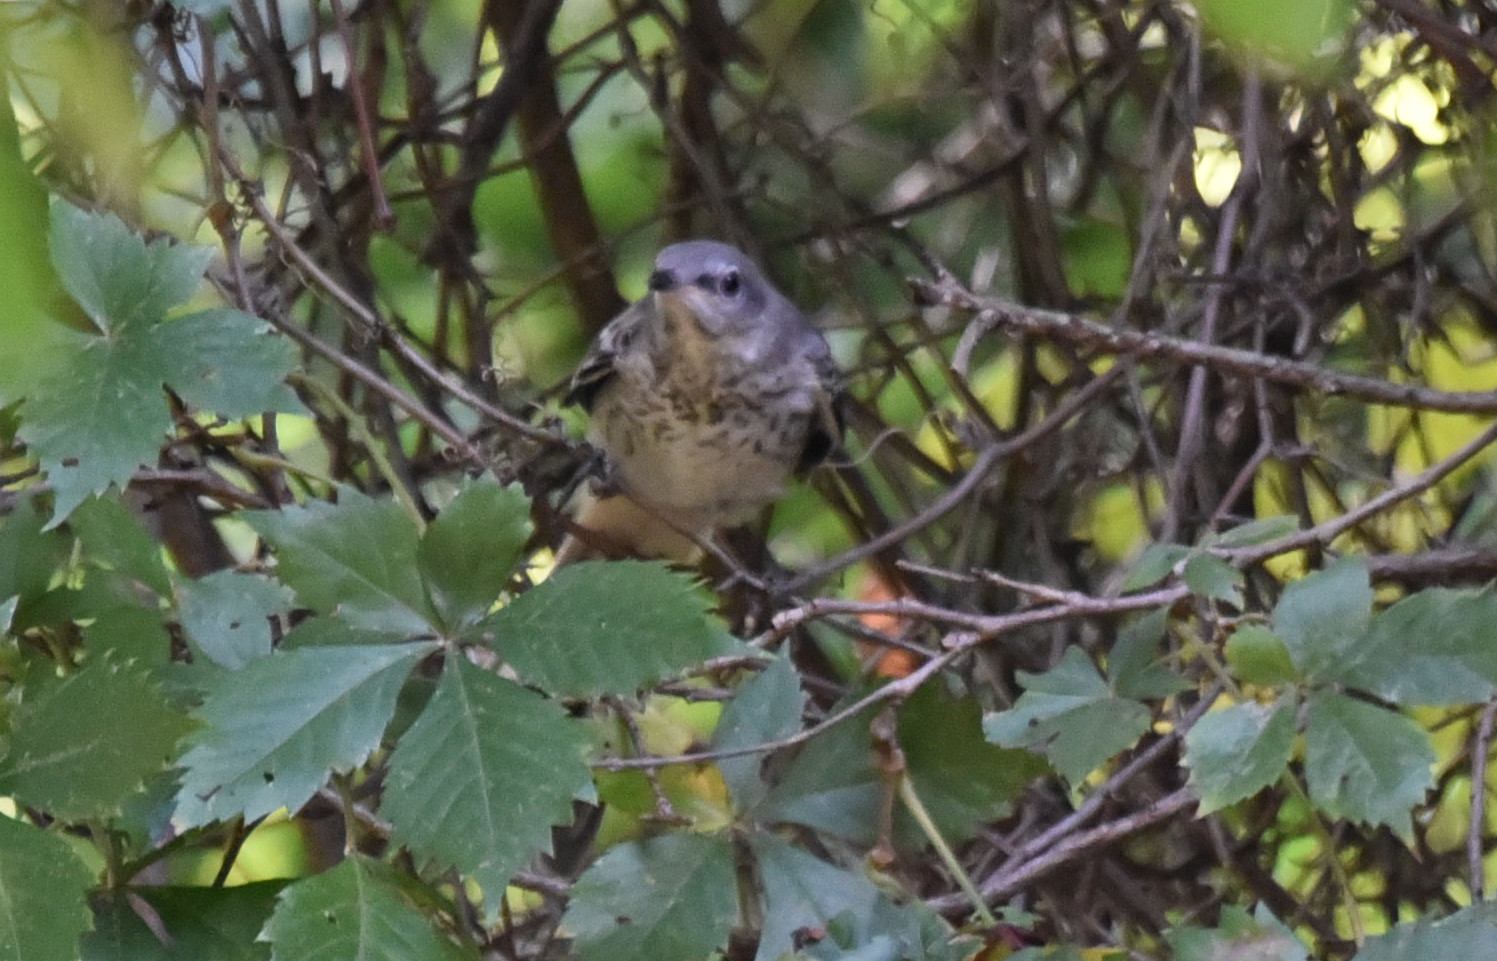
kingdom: Animalia
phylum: Chordata
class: Aves
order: Passeriformes
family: Mimidae
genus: Mimus
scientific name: Mimus polyglottos
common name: Northern mockingbird
